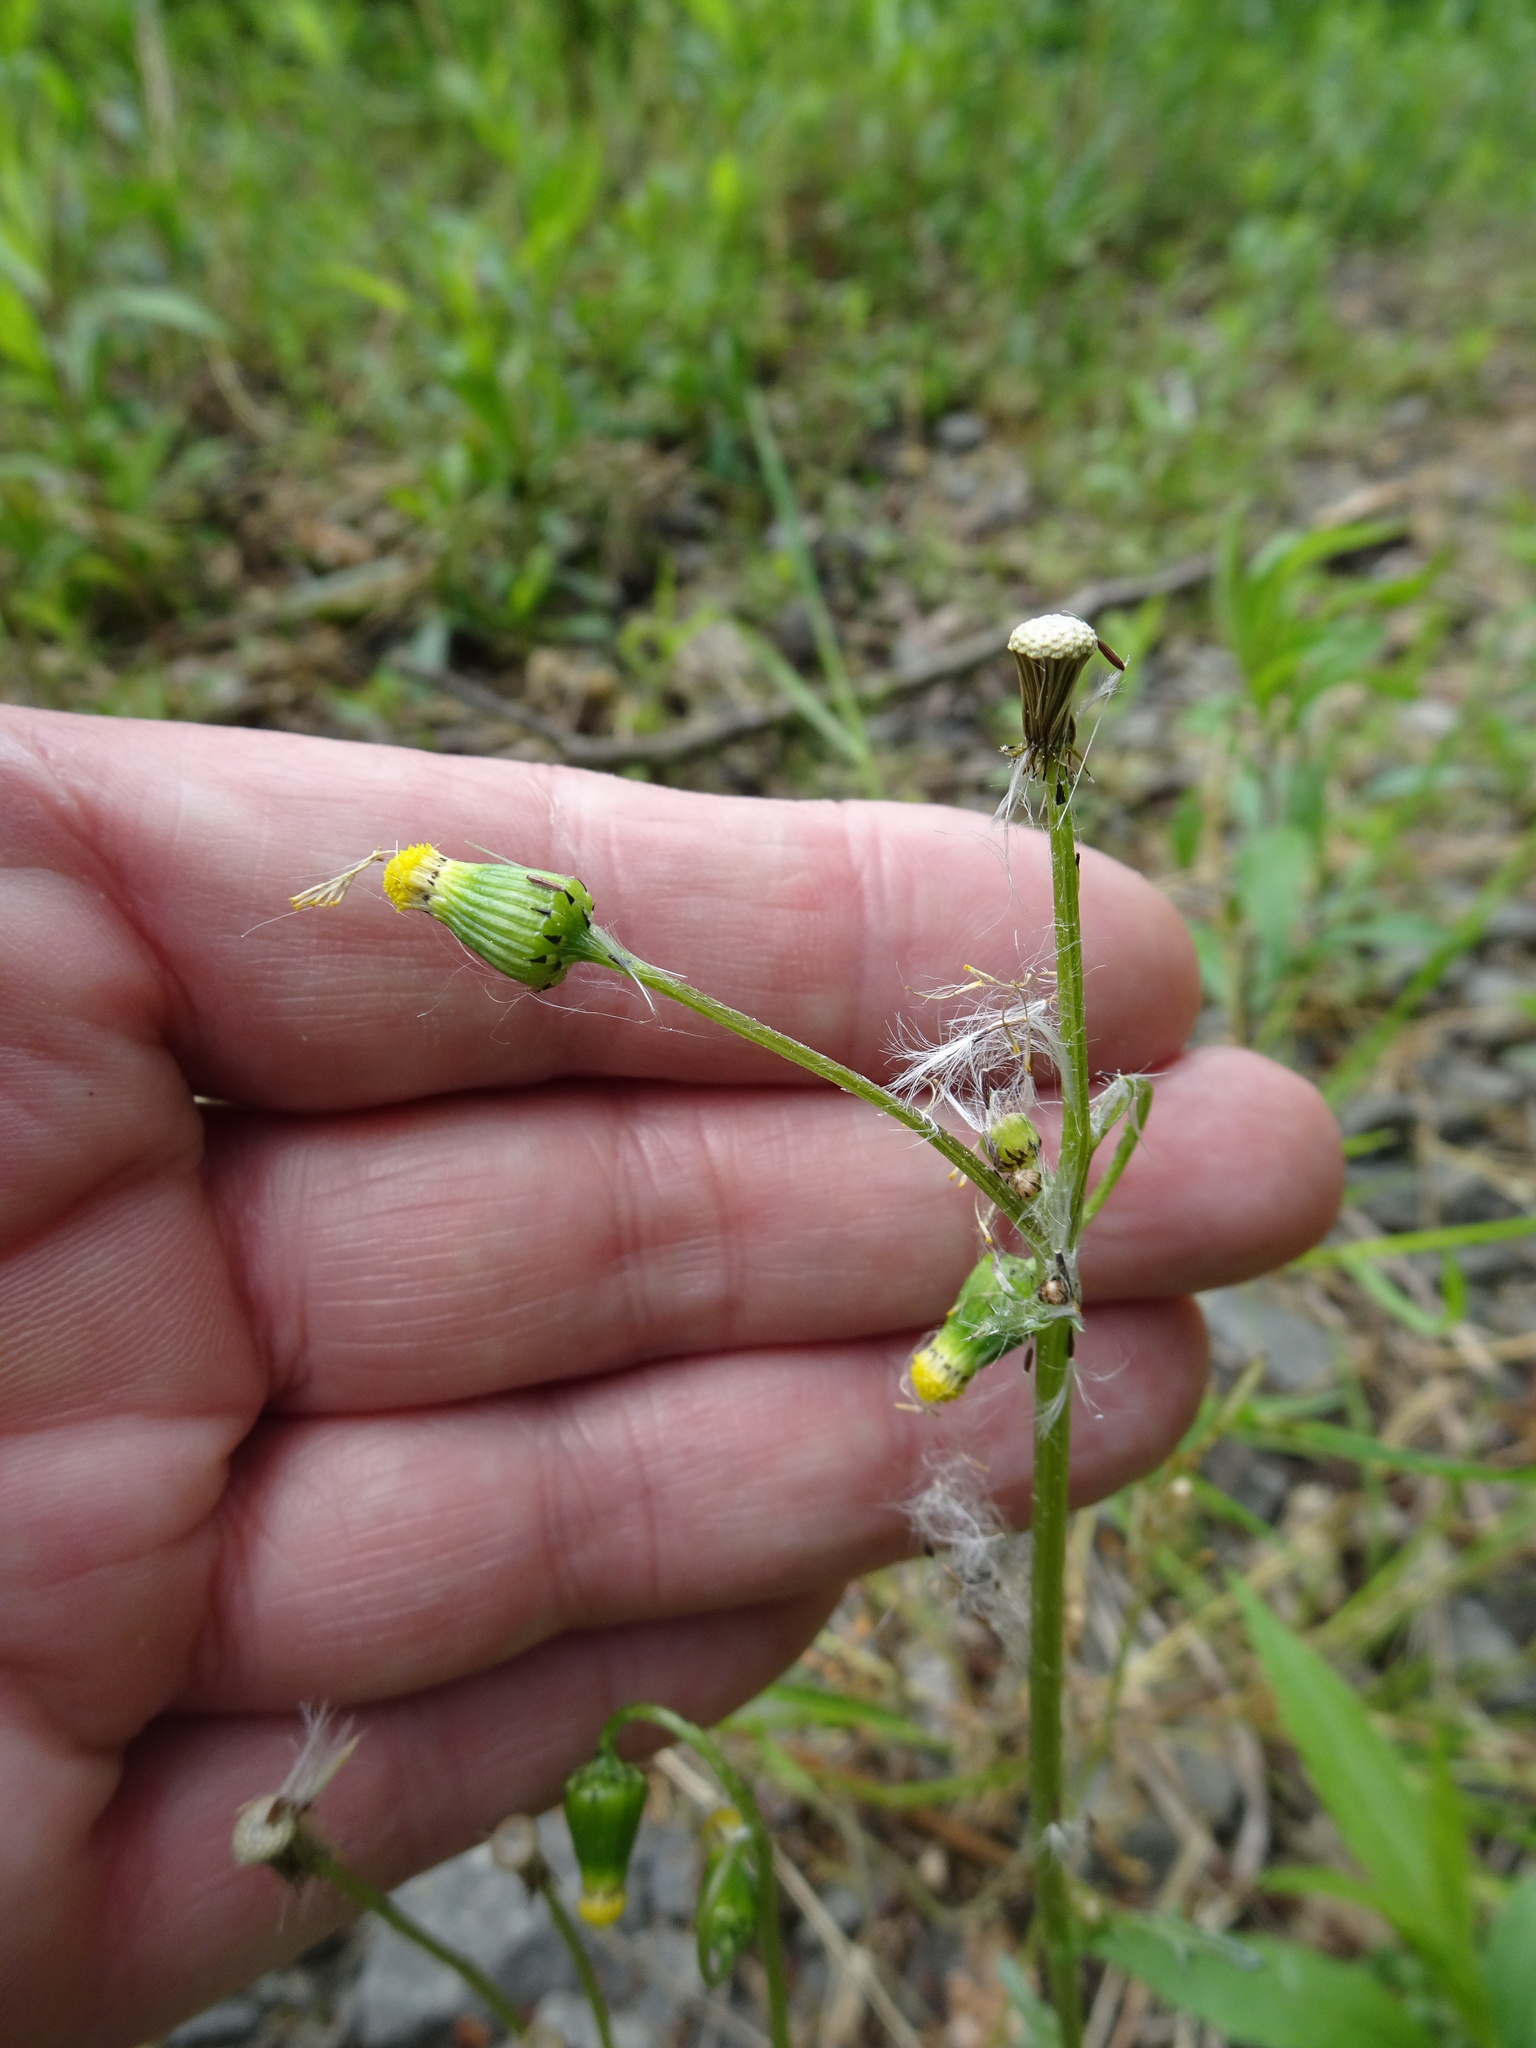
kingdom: Plantae
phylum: Tracheophyta
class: Magnoliopsida
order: Asterales
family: Asteraceae
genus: Senecio
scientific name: Senecio vulgaris
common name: Old-man-in-the-spring
